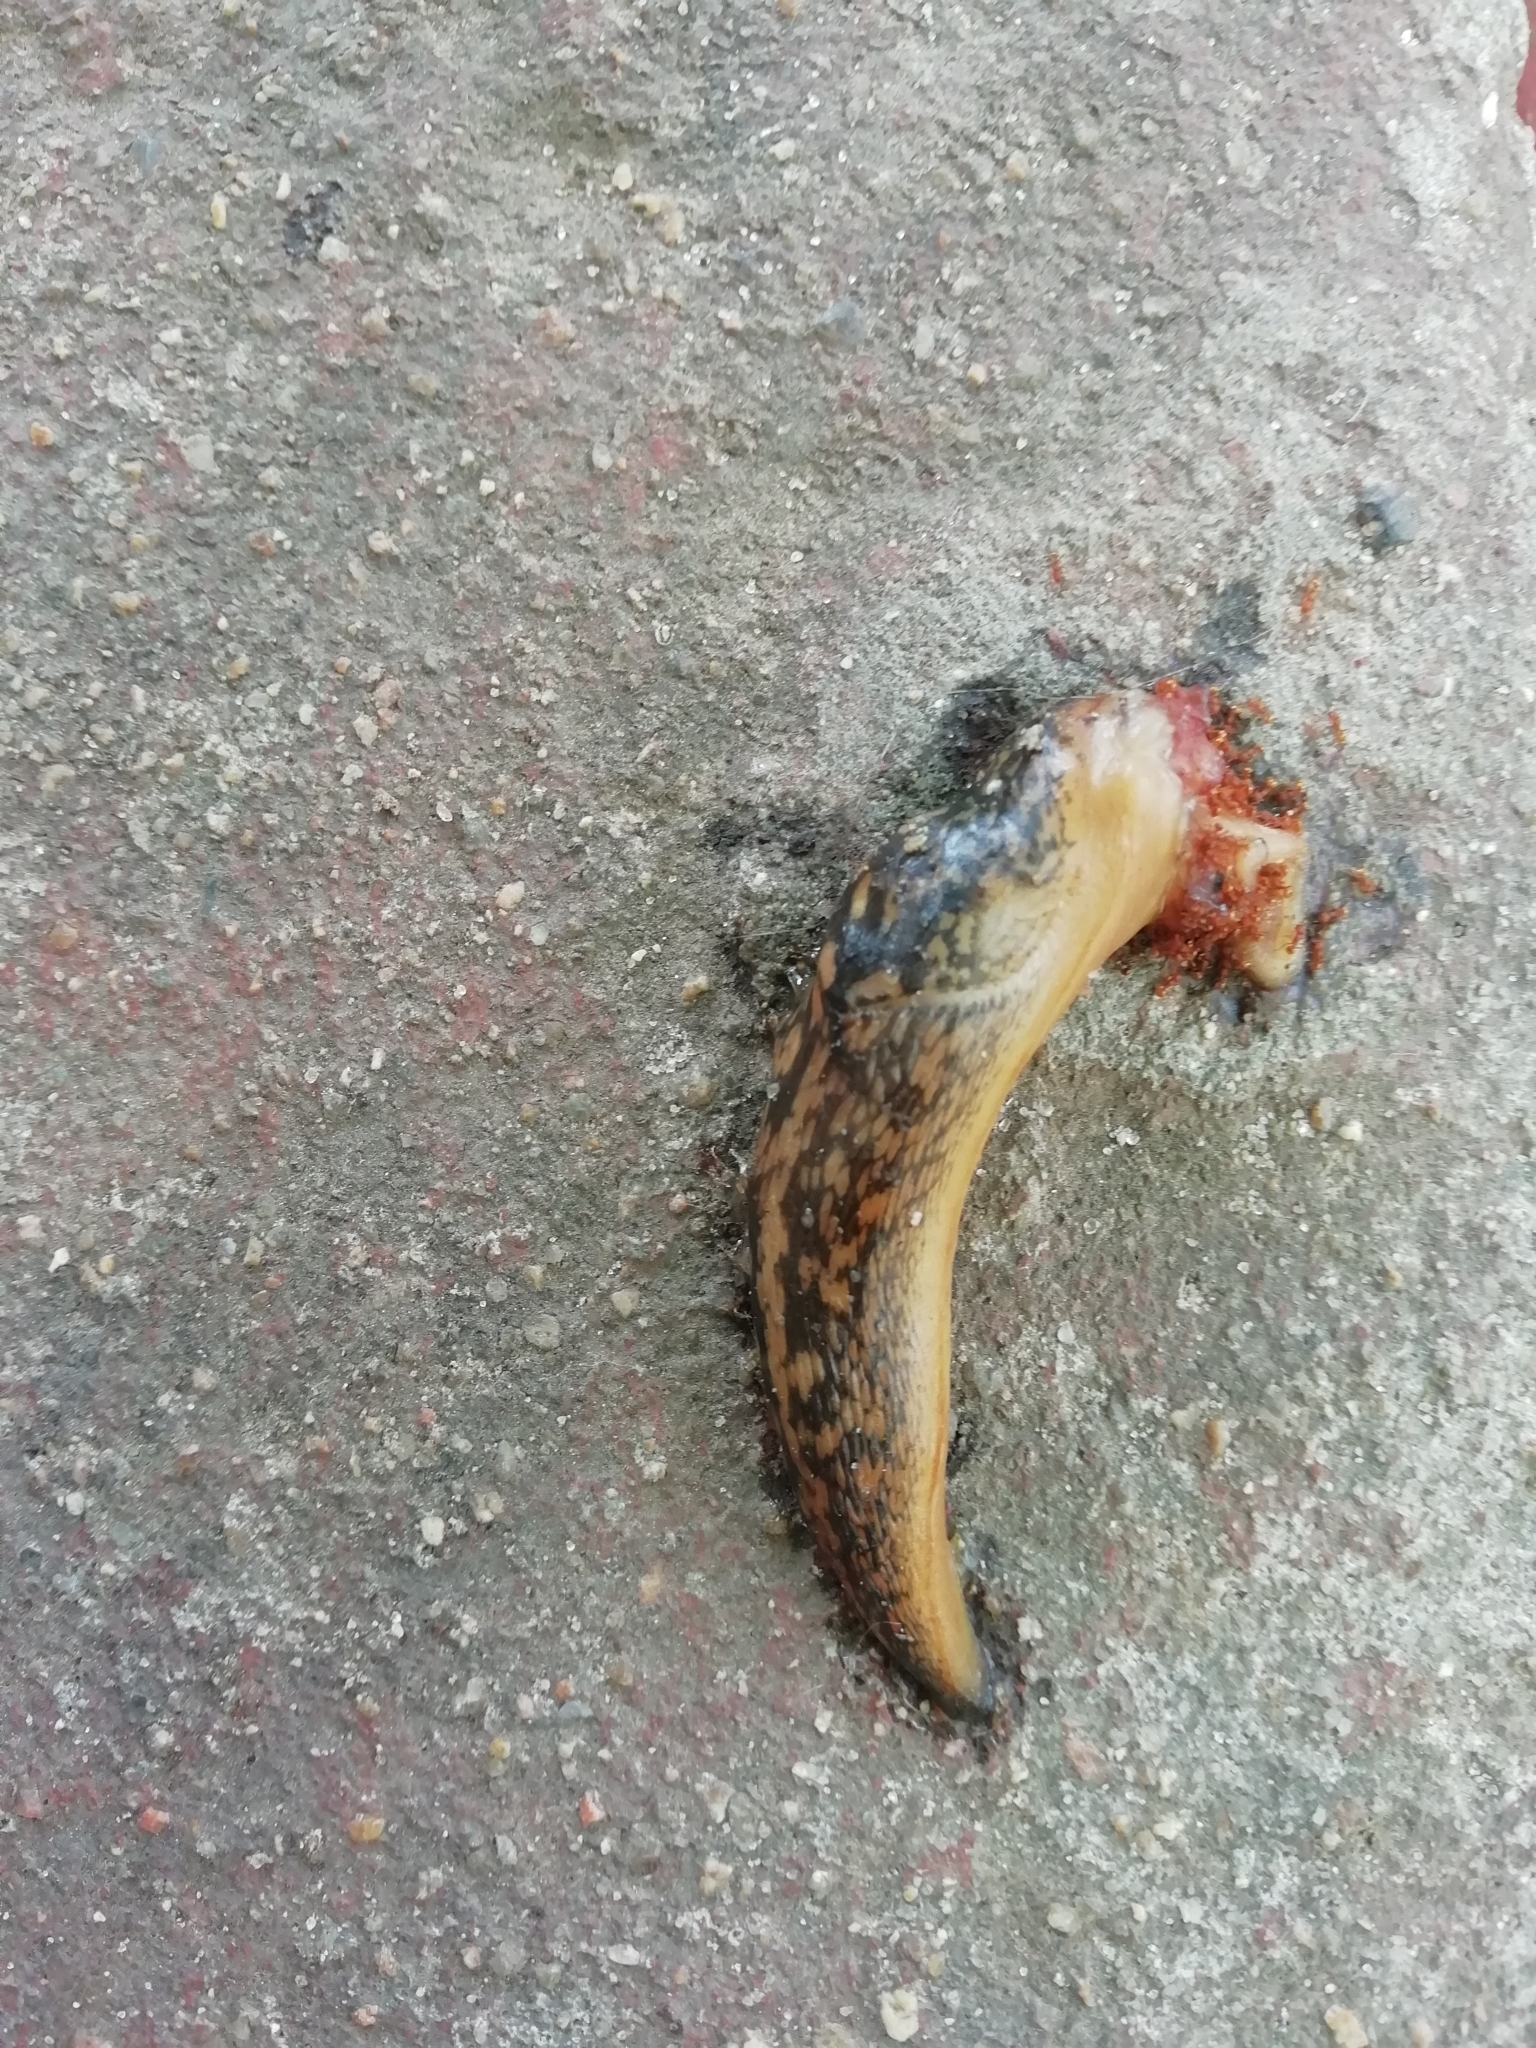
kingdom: Animalia
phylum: Mollusca
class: Gastropoda
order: Stylommatophora
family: Limacidae
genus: Limacus
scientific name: Limacus flavus
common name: Yellow gardenslug
